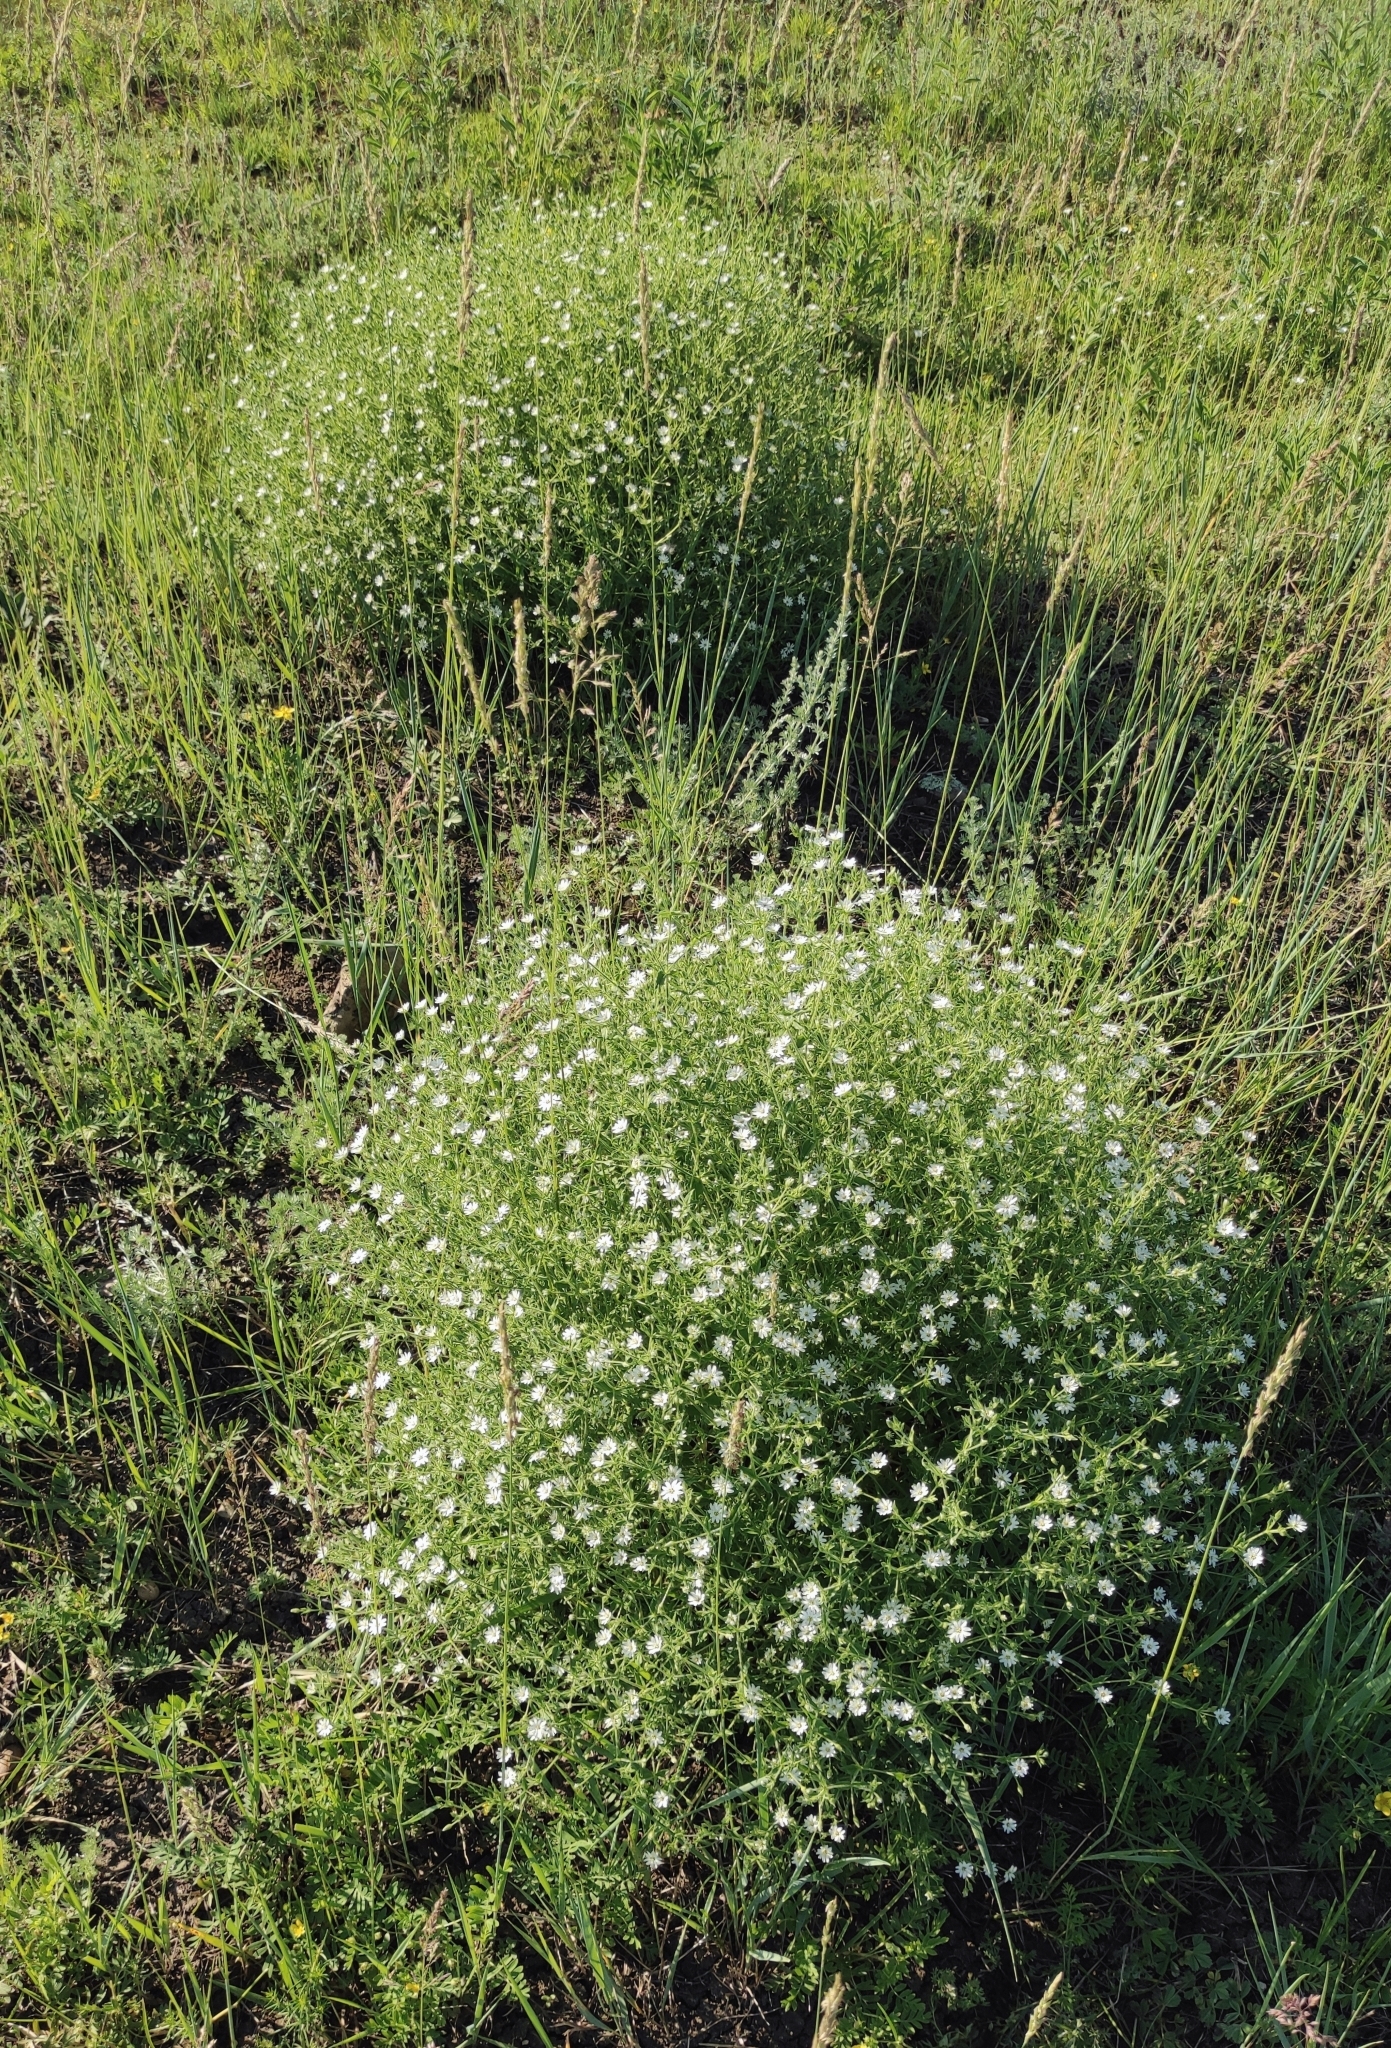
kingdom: Plantae
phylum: Tracheophyta
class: Magnoliopsida
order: Caryophyllales
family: Caryophyllaceae
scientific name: Caryophyllaceae
